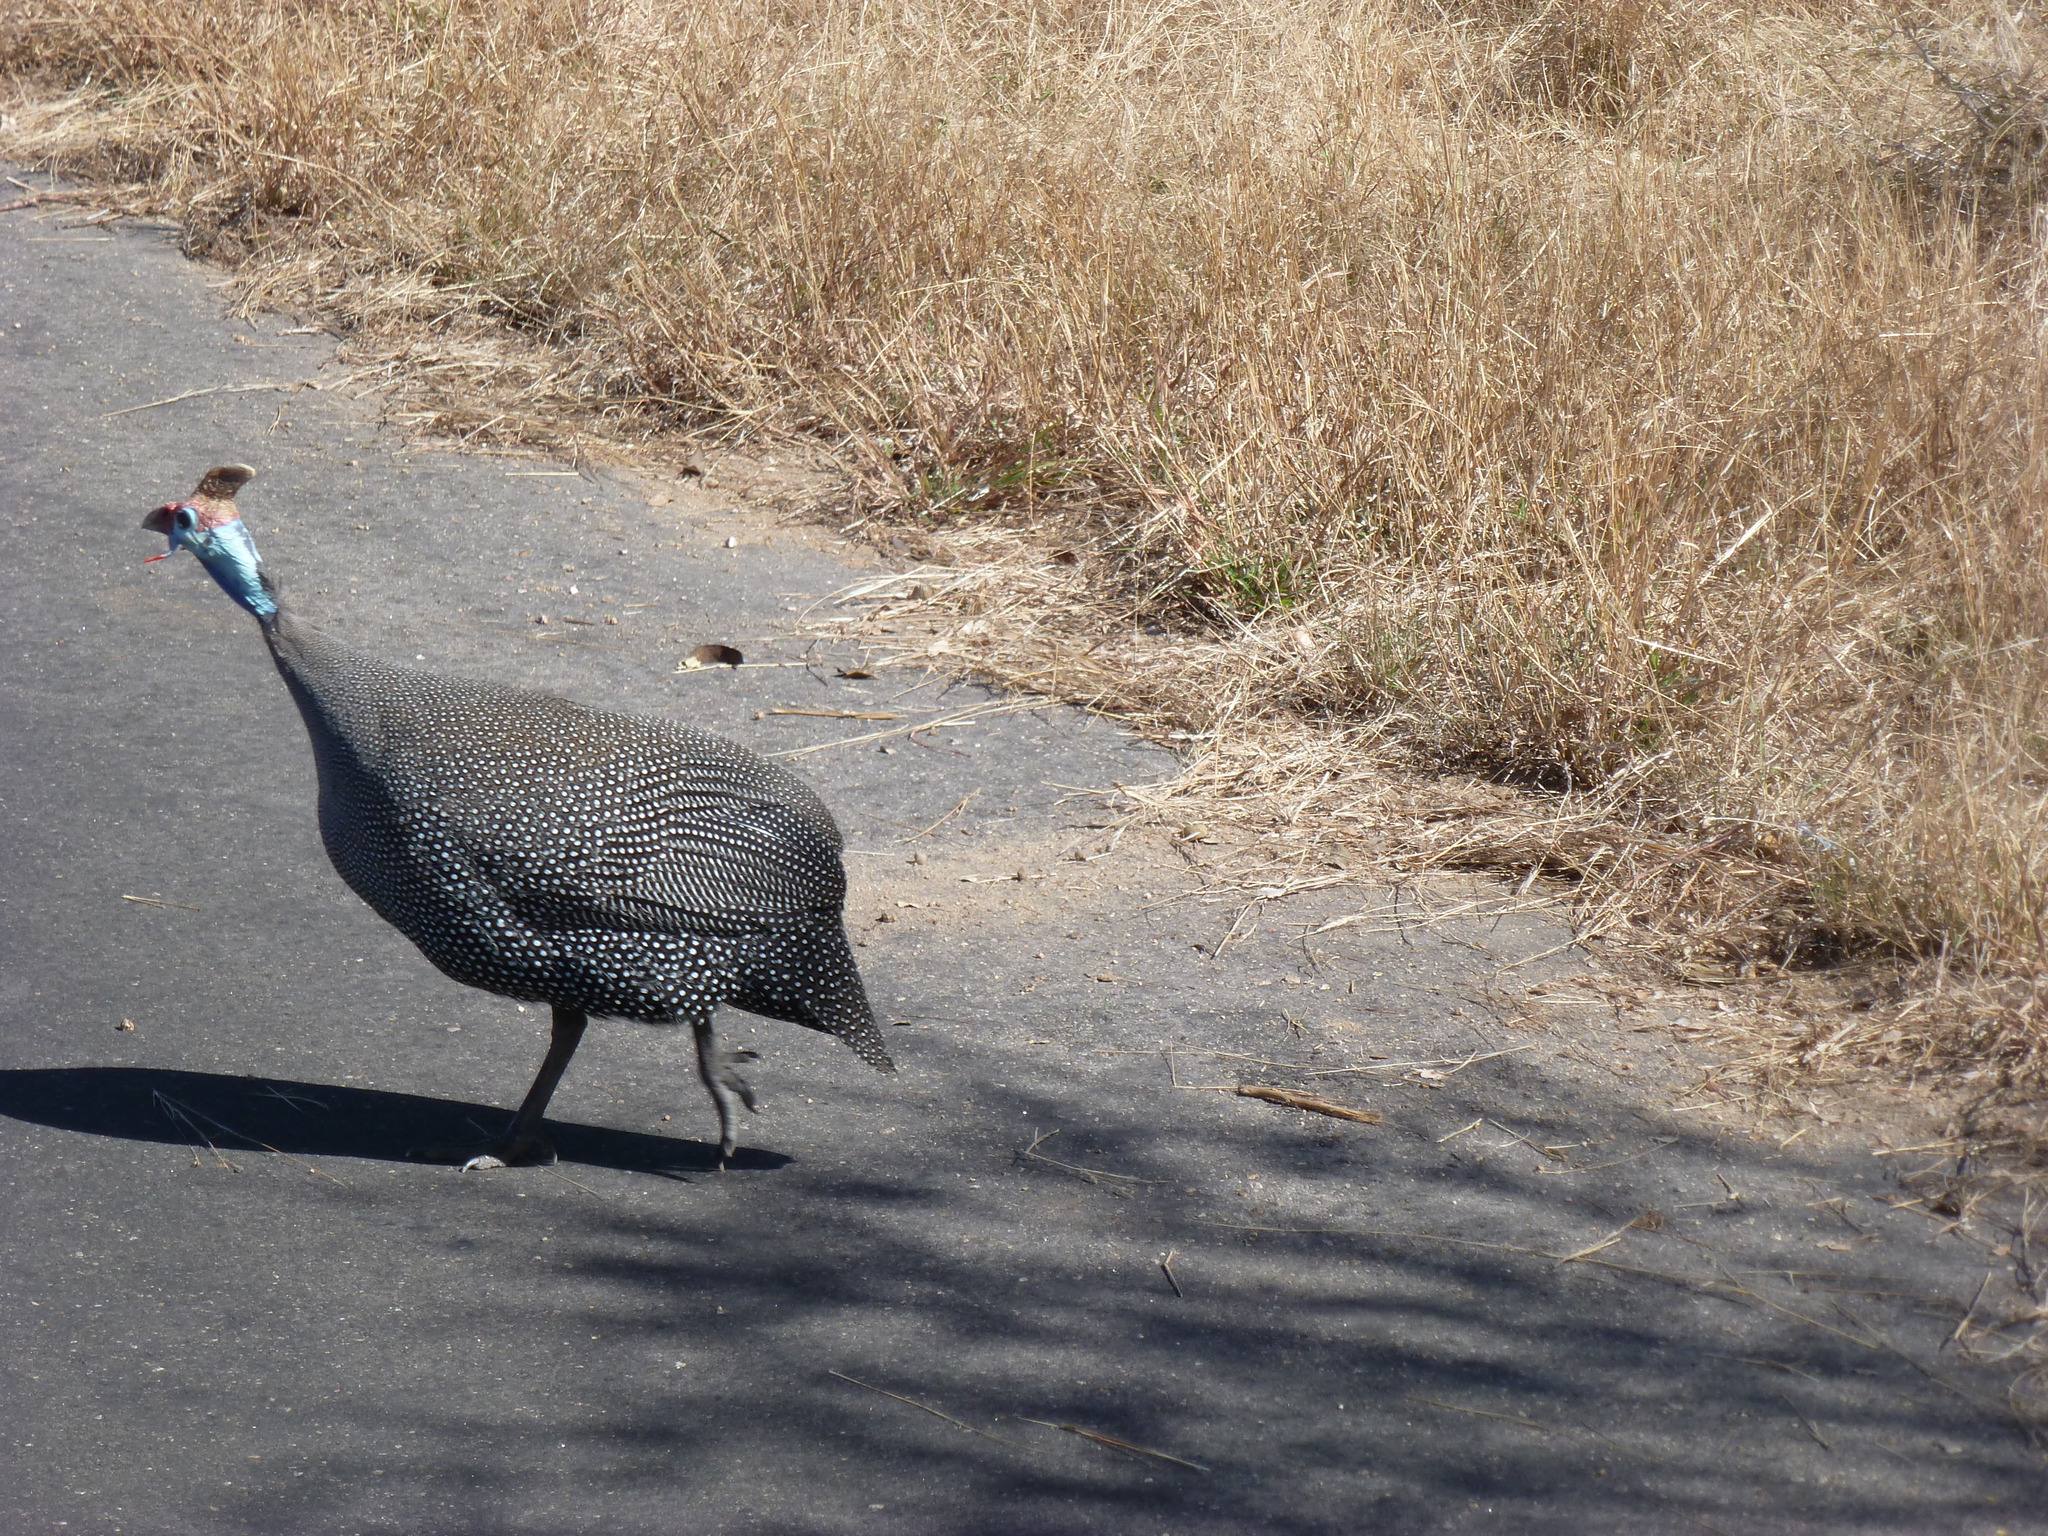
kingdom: Animalia
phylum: Chordata
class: Aves
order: Galliformes
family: Numididae
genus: Numida
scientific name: Numida meleagris
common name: Helmeted guineafowl
